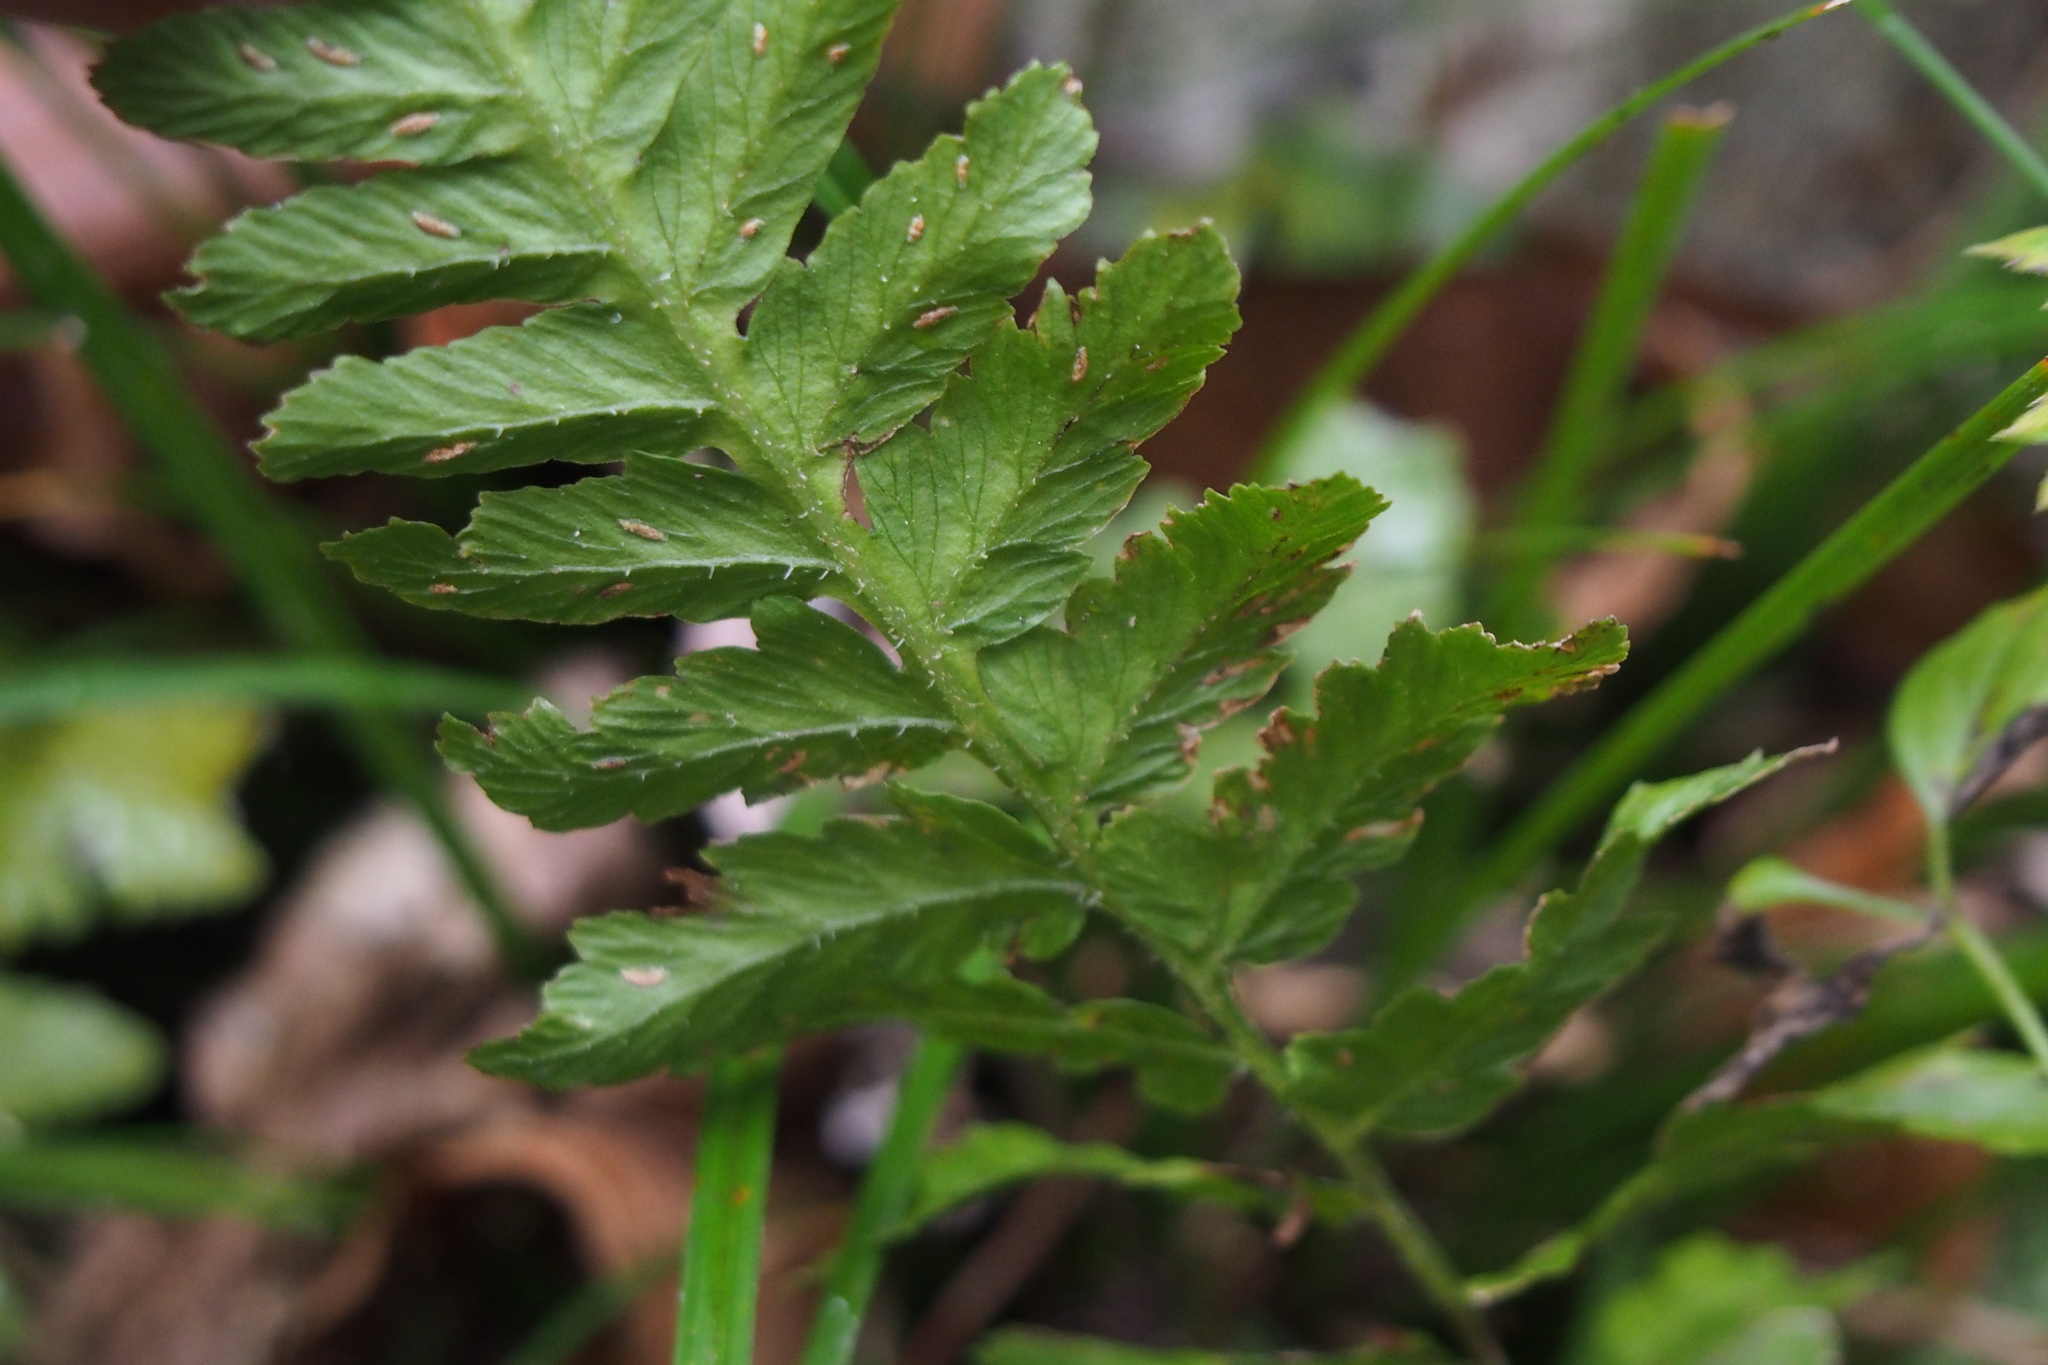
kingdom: Plantae
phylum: Tracheophyta
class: Polypodiopsida
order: Polypodiales
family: Athyriaceae
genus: Deparia
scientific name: Deparia conilii
